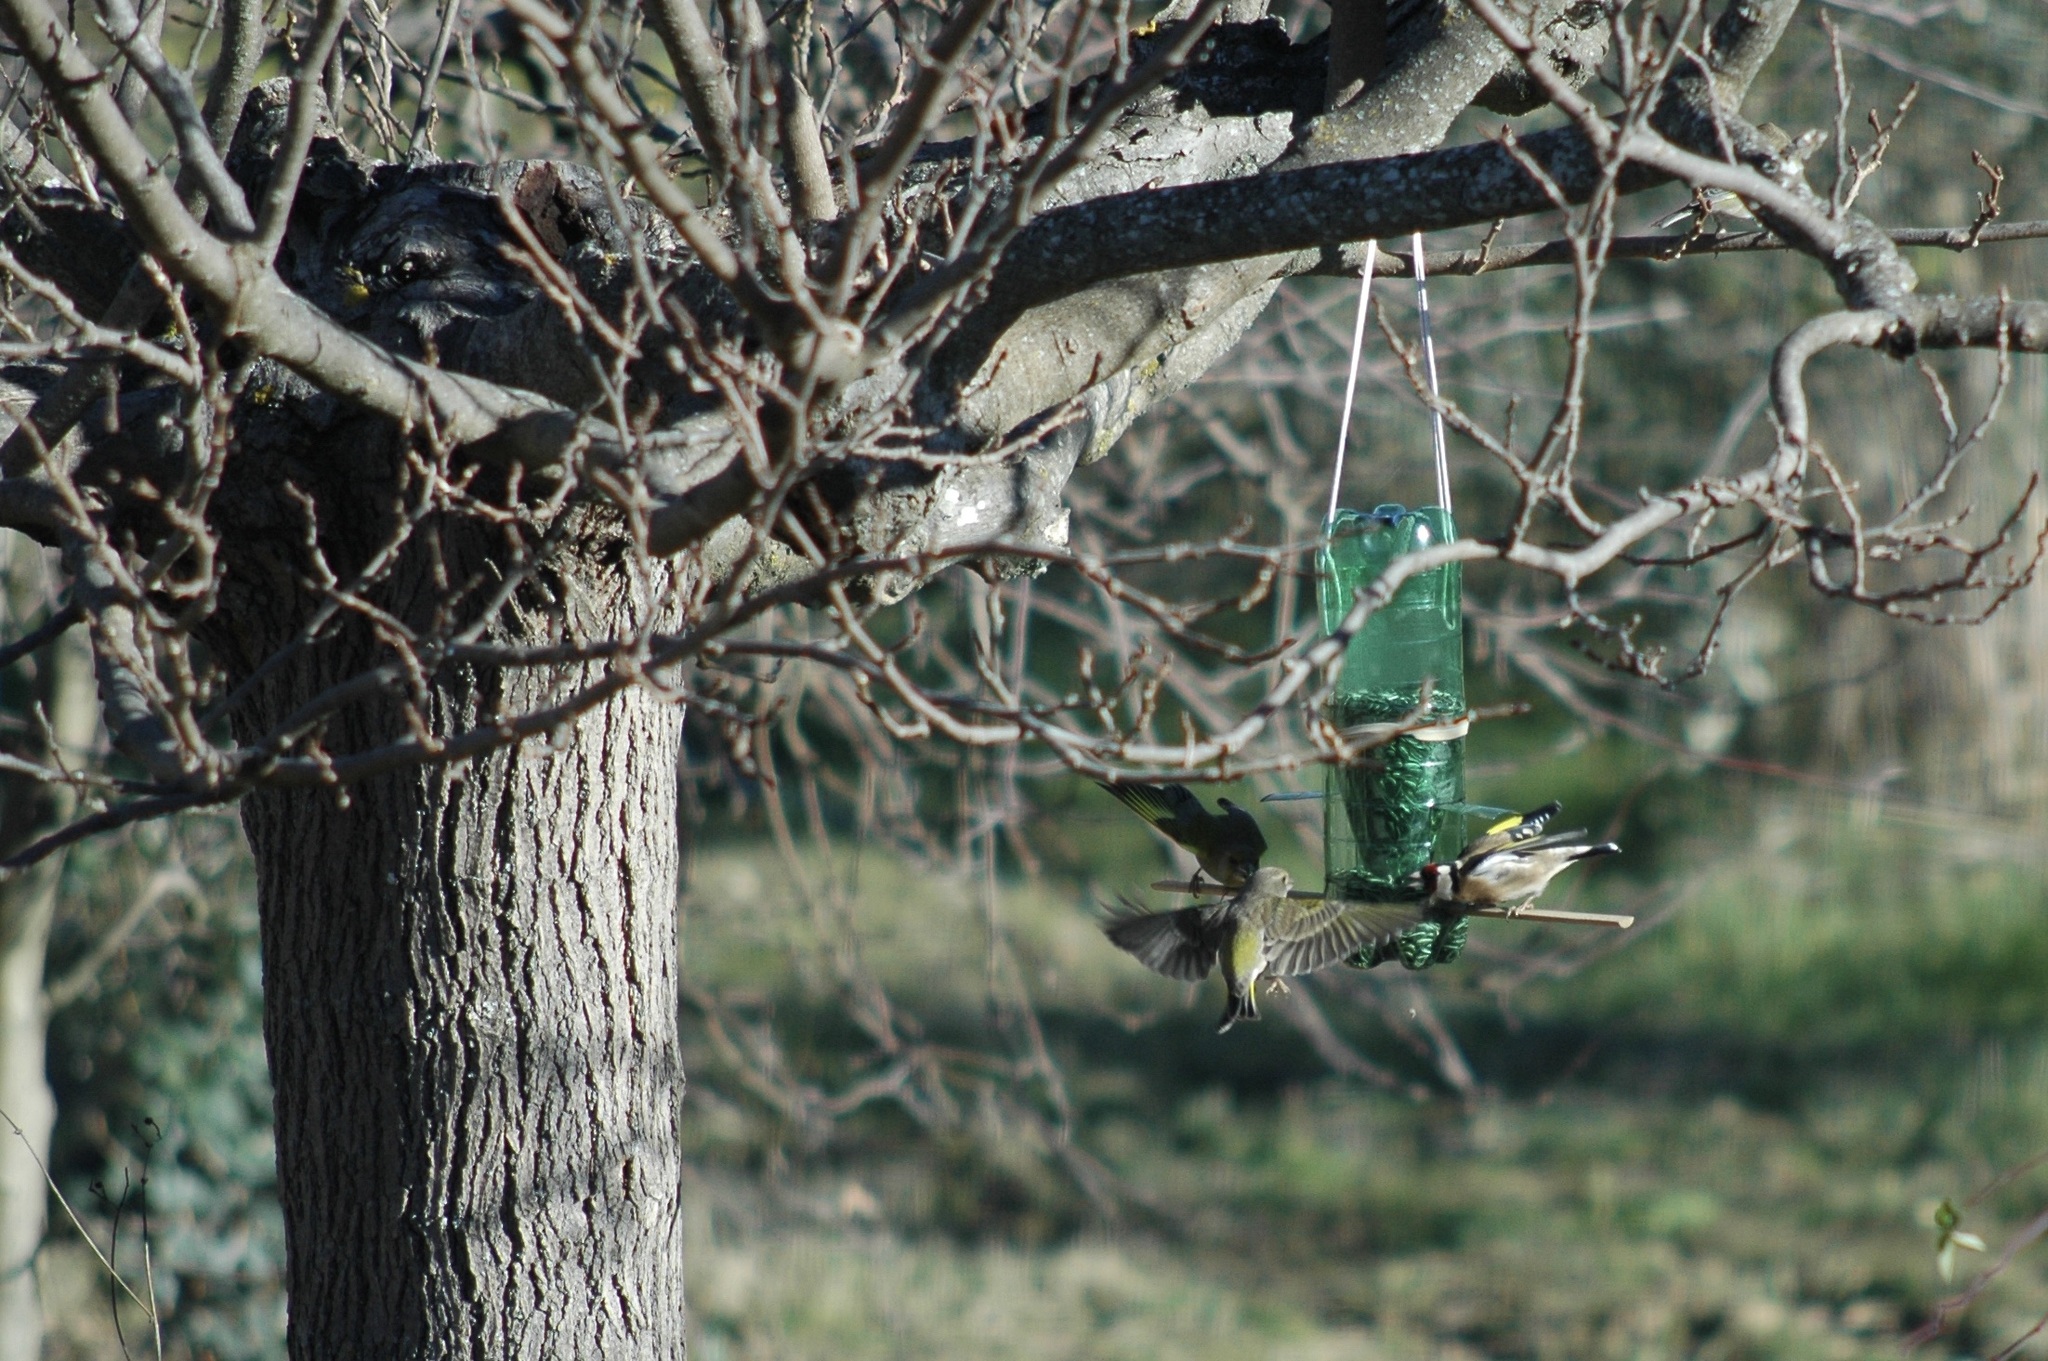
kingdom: Plantae
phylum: Tracheophyta
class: Liliopsida
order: Poales
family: Poaceae
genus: Chloris
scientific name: Chloris chloris
